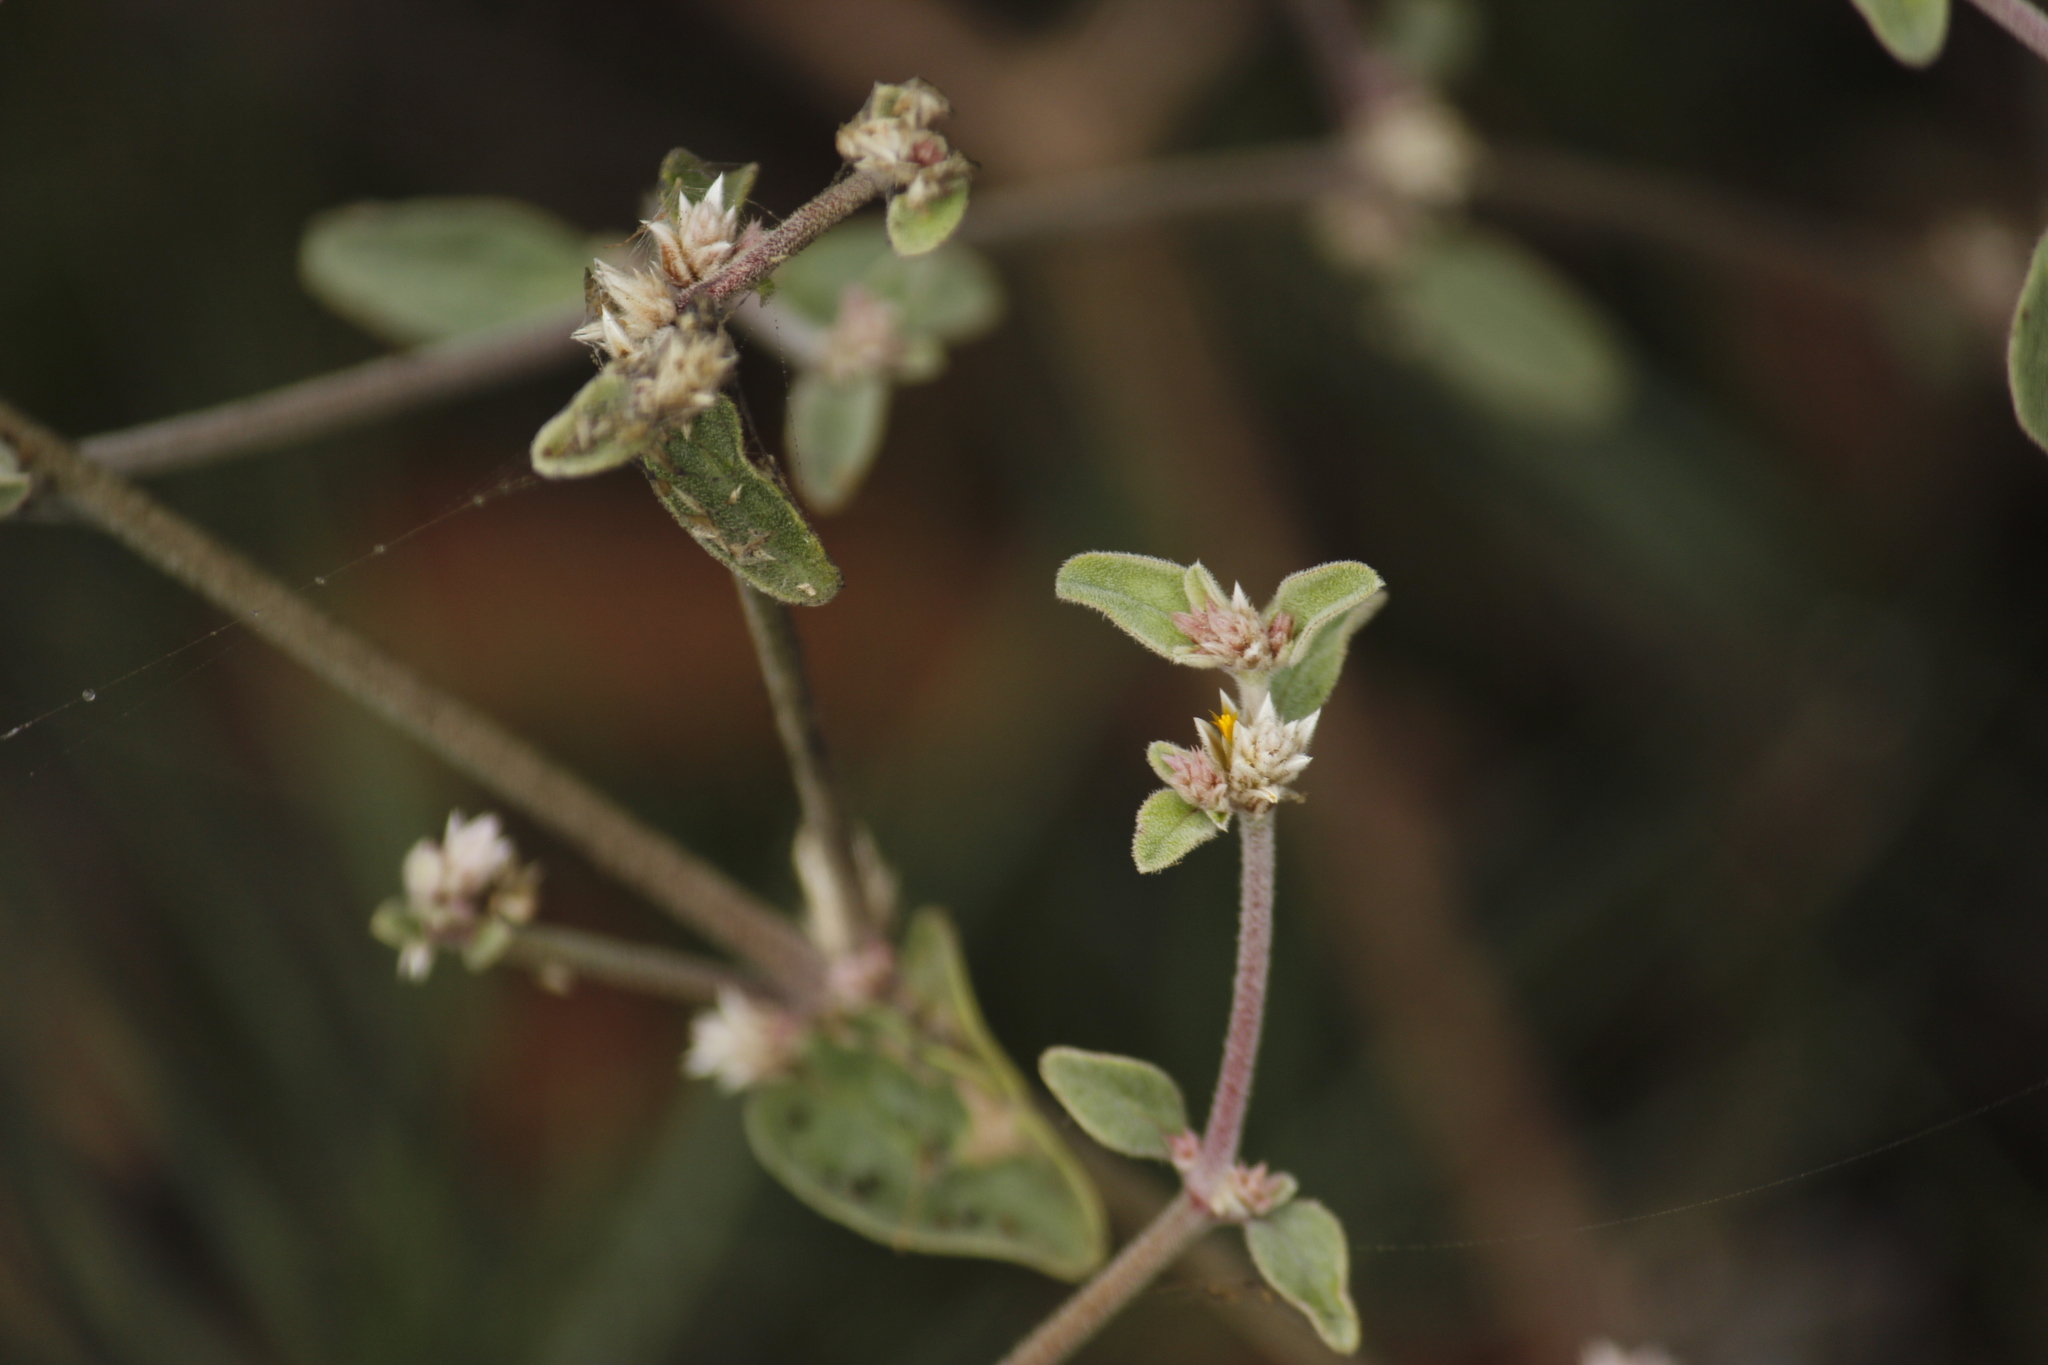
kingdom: Plantae
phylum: Tracheophyta
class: Magnoliopsida
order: Caryophyllales
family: Amaranthaceae
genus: Alternanthera
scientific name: Alternanthera halimifolia
